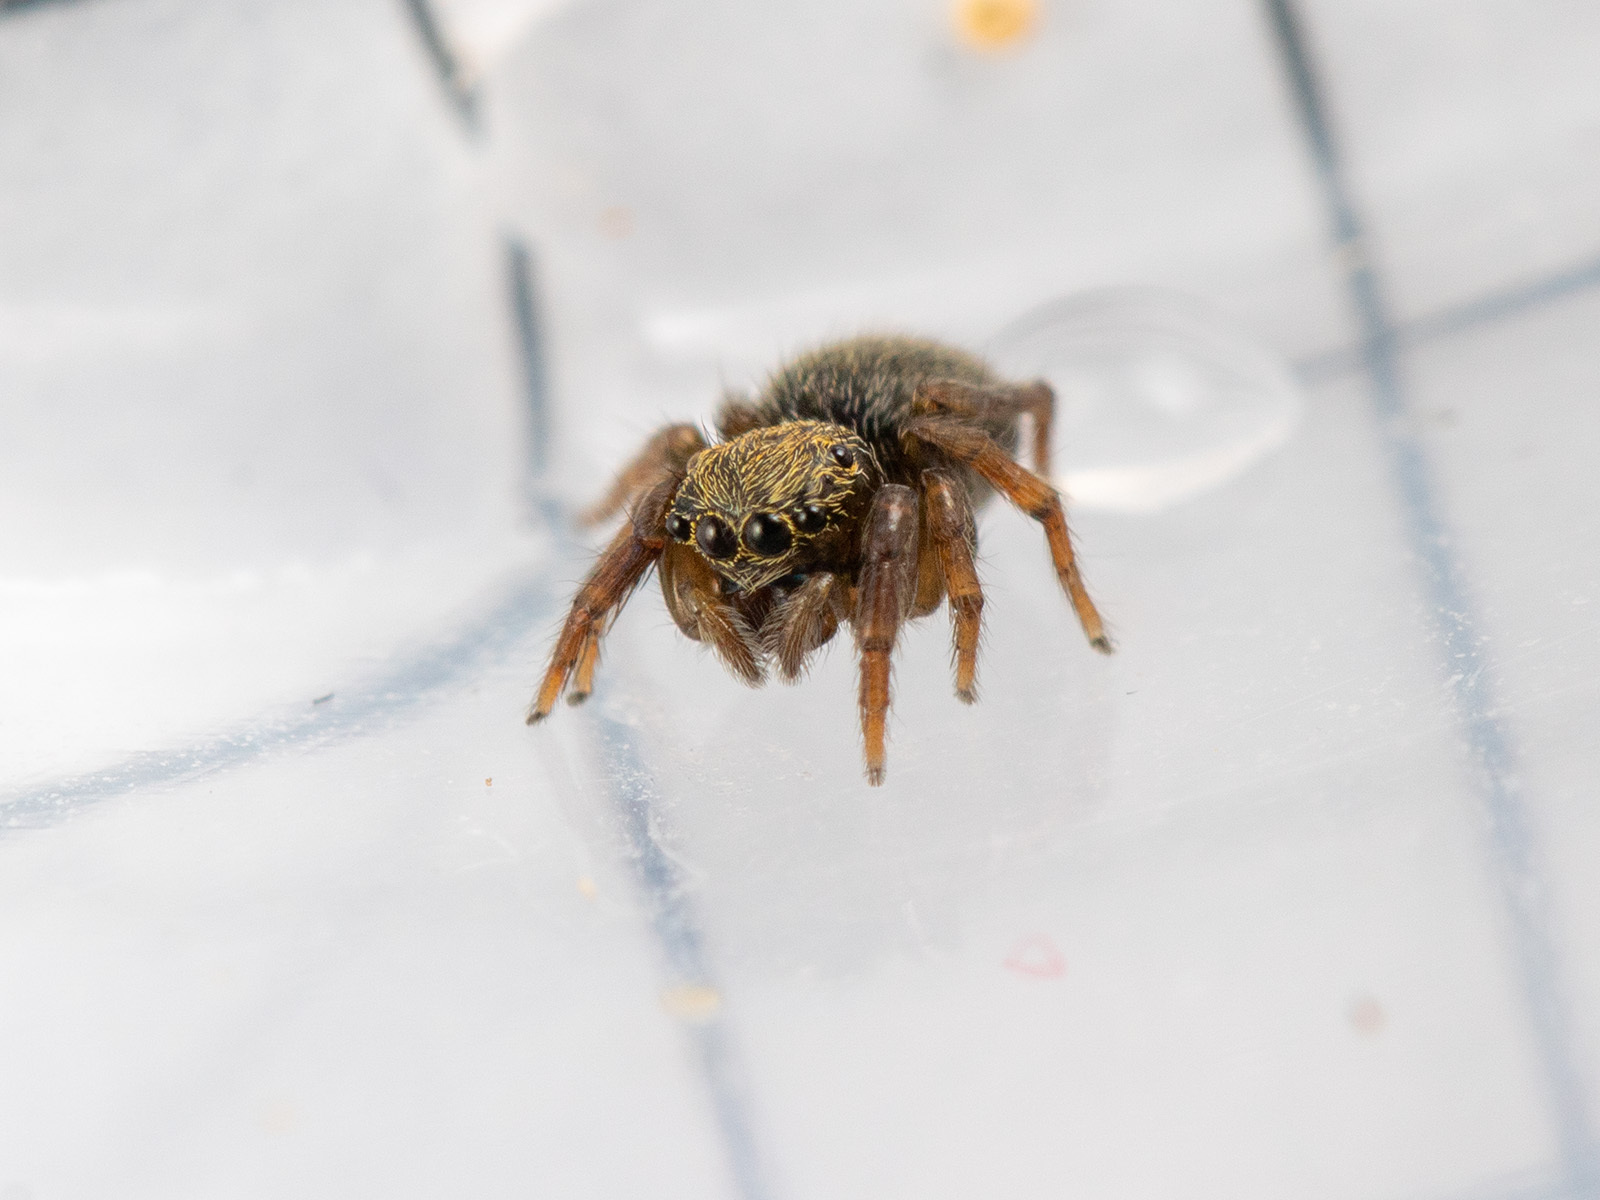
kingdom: Animalia
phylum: Arthropoda
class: Arachnida
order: Araneae
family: Salticidae
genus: Euophrys
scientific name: Euophrys uralensis
